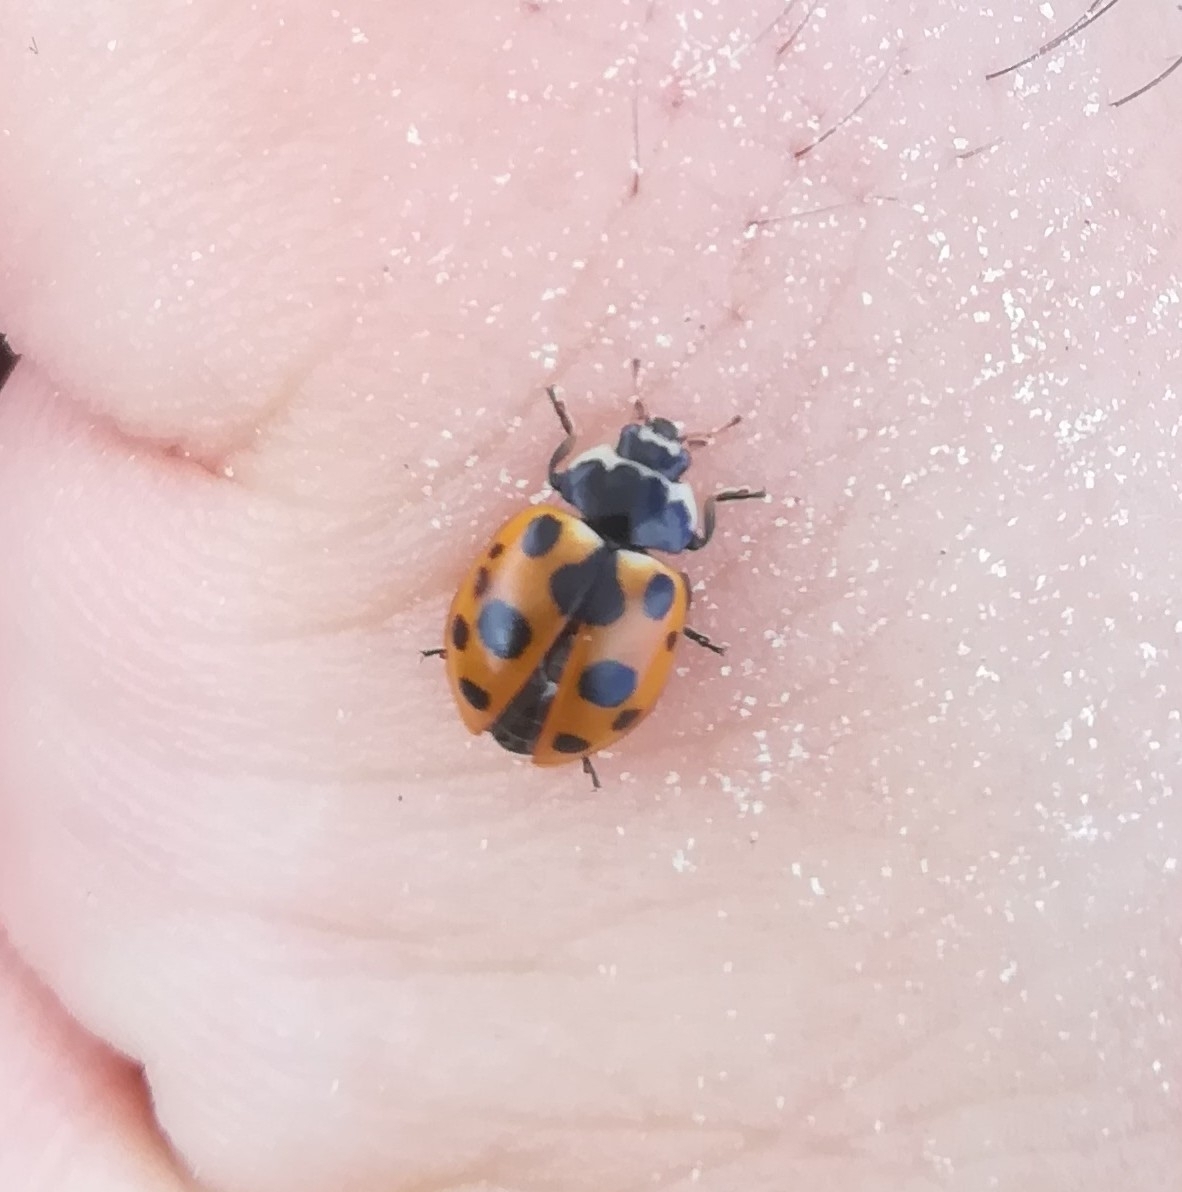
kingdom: Animalia
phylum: Arthropoda
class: Insecta
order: Coleoptera
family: Coccinellidae
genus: Ceratomegilla
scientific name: Ceratomegilla notata
